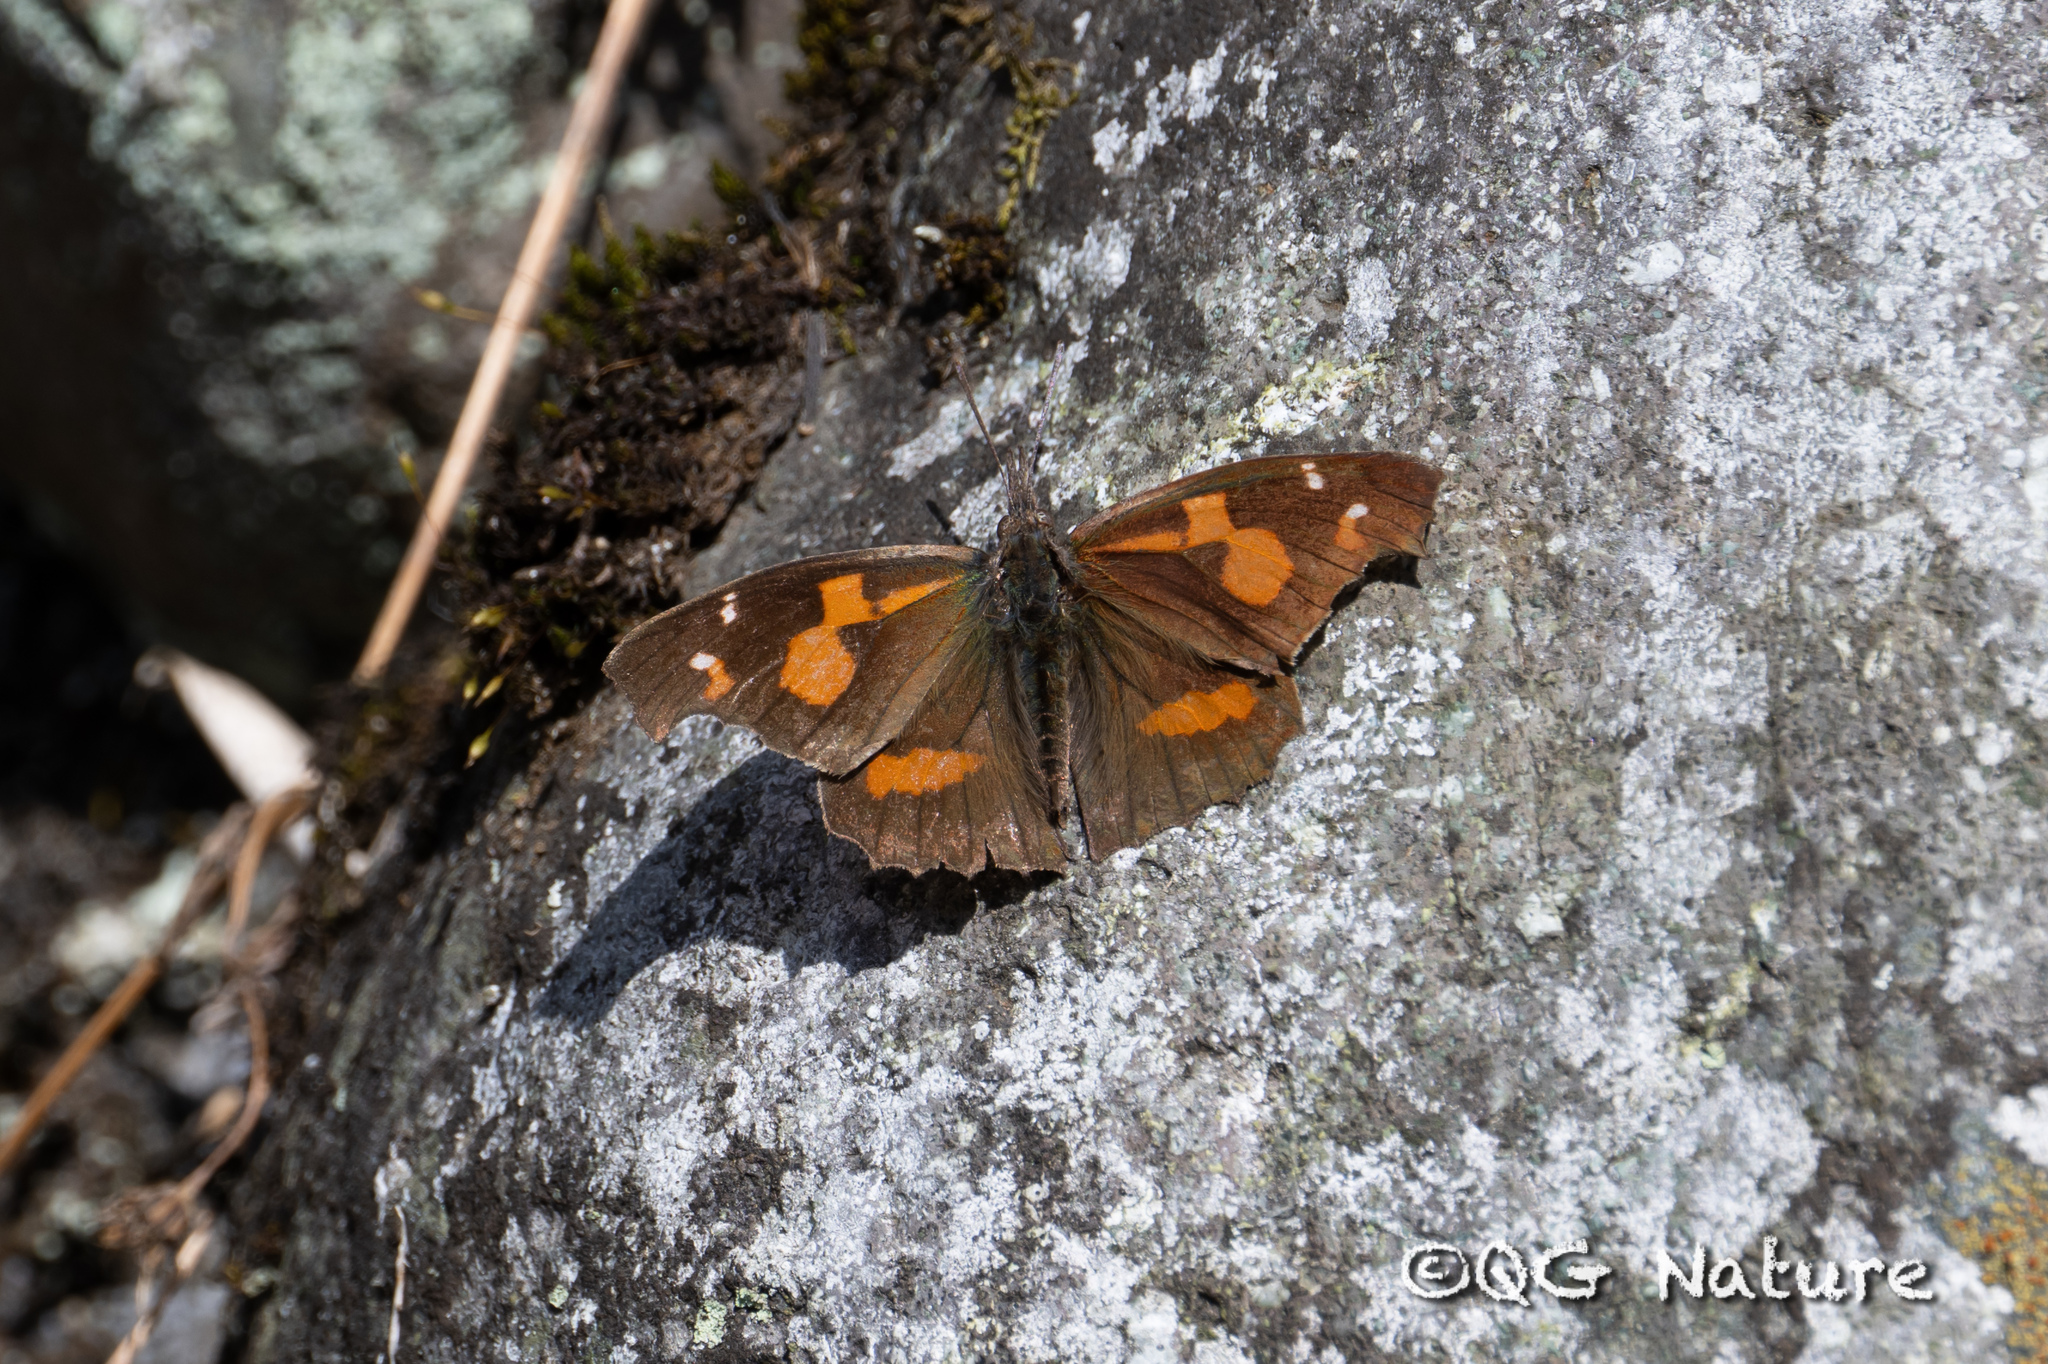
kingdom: Animalia
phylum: Arthropoda
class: Insecta
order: Lepidoptera
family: Nymphalidae
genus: Libythea
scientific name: Libythea lepita
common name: Common beak
